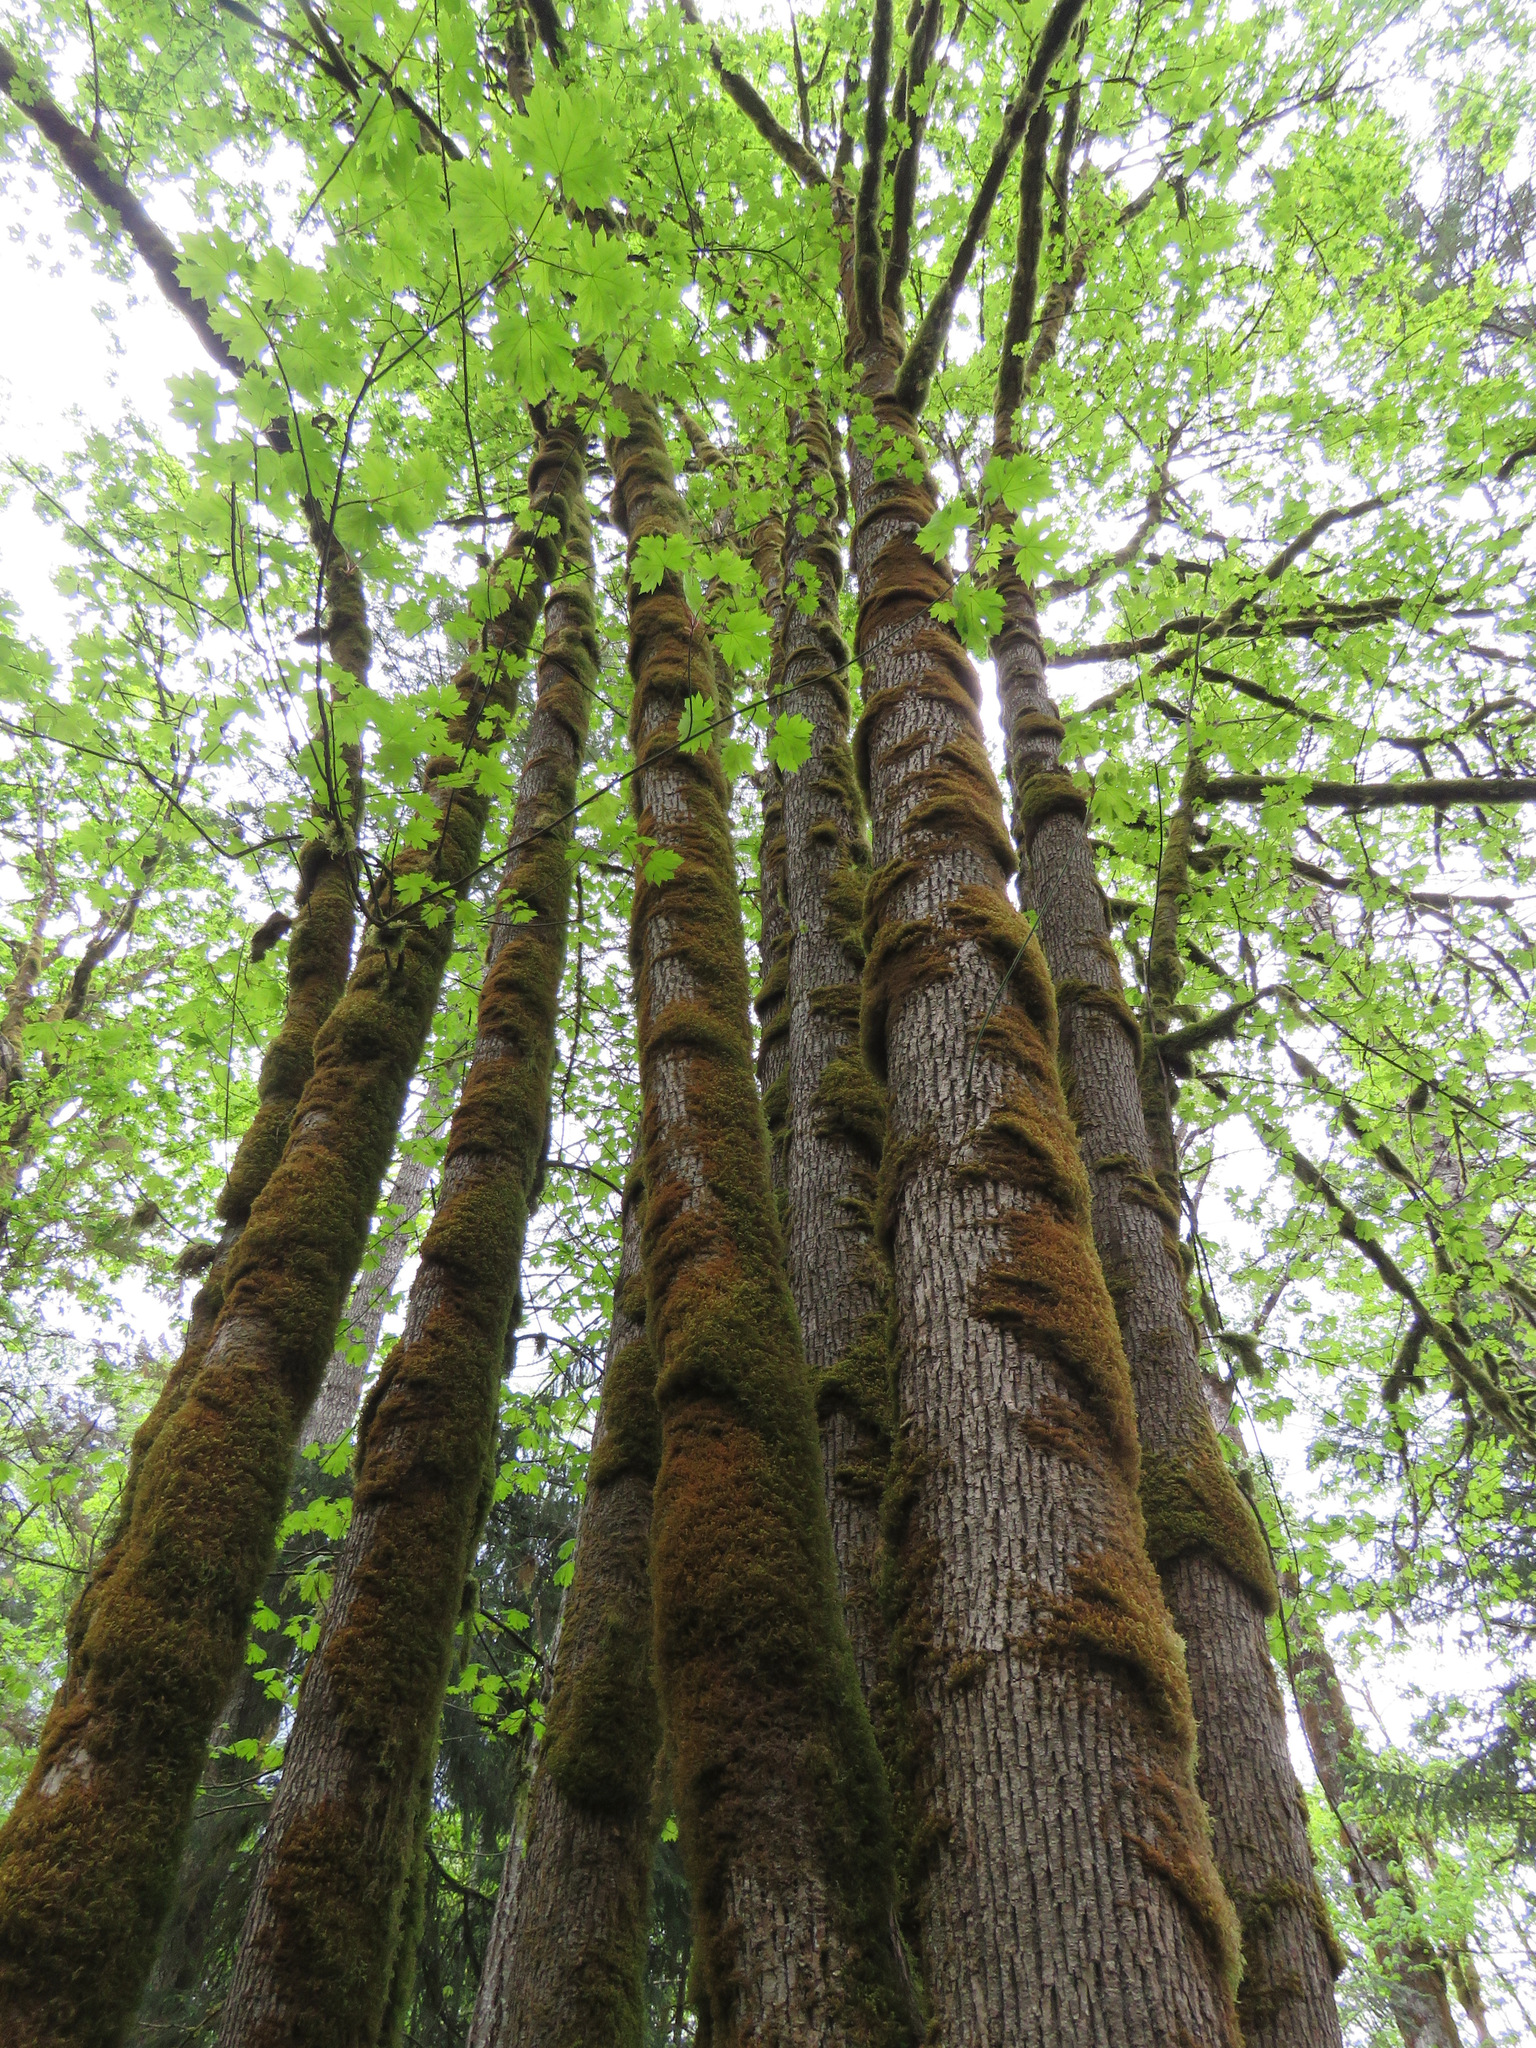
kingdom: Plantae
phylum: Tracheophyta
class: Magnoliopsida
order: Sapindales
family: Sapindaceae
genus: Acer
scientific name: Acer macrophyllum
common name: Oregon maple
